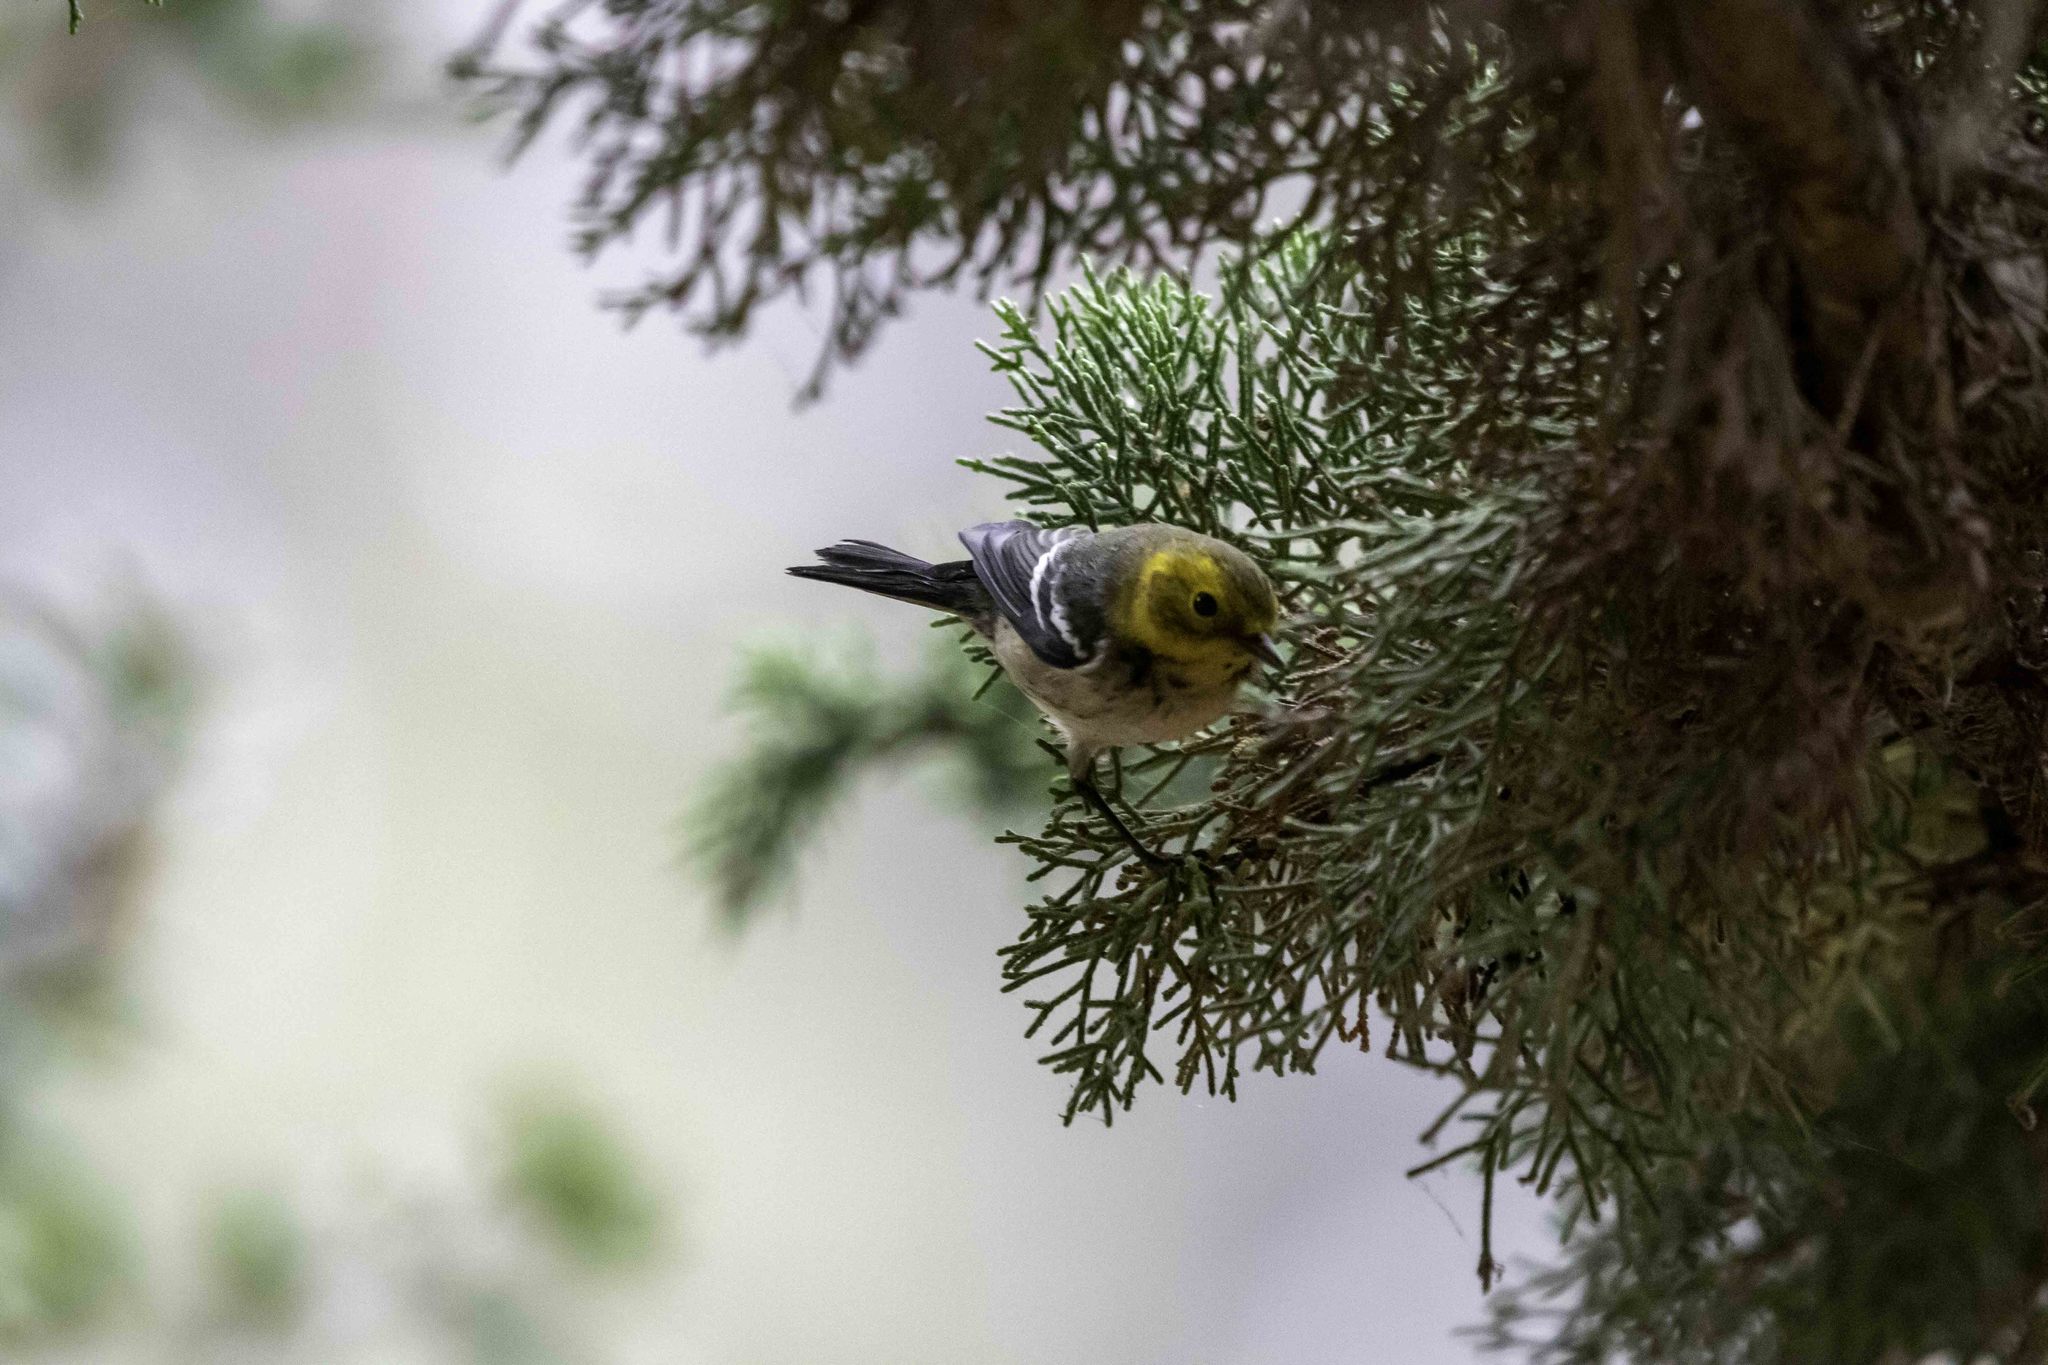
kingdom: Animalia
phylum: Chordata
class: Aves
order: Passeriformes
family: Parulidae
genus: Setophaga
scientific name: Setophaga occidentalis
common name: Hermit warbler
